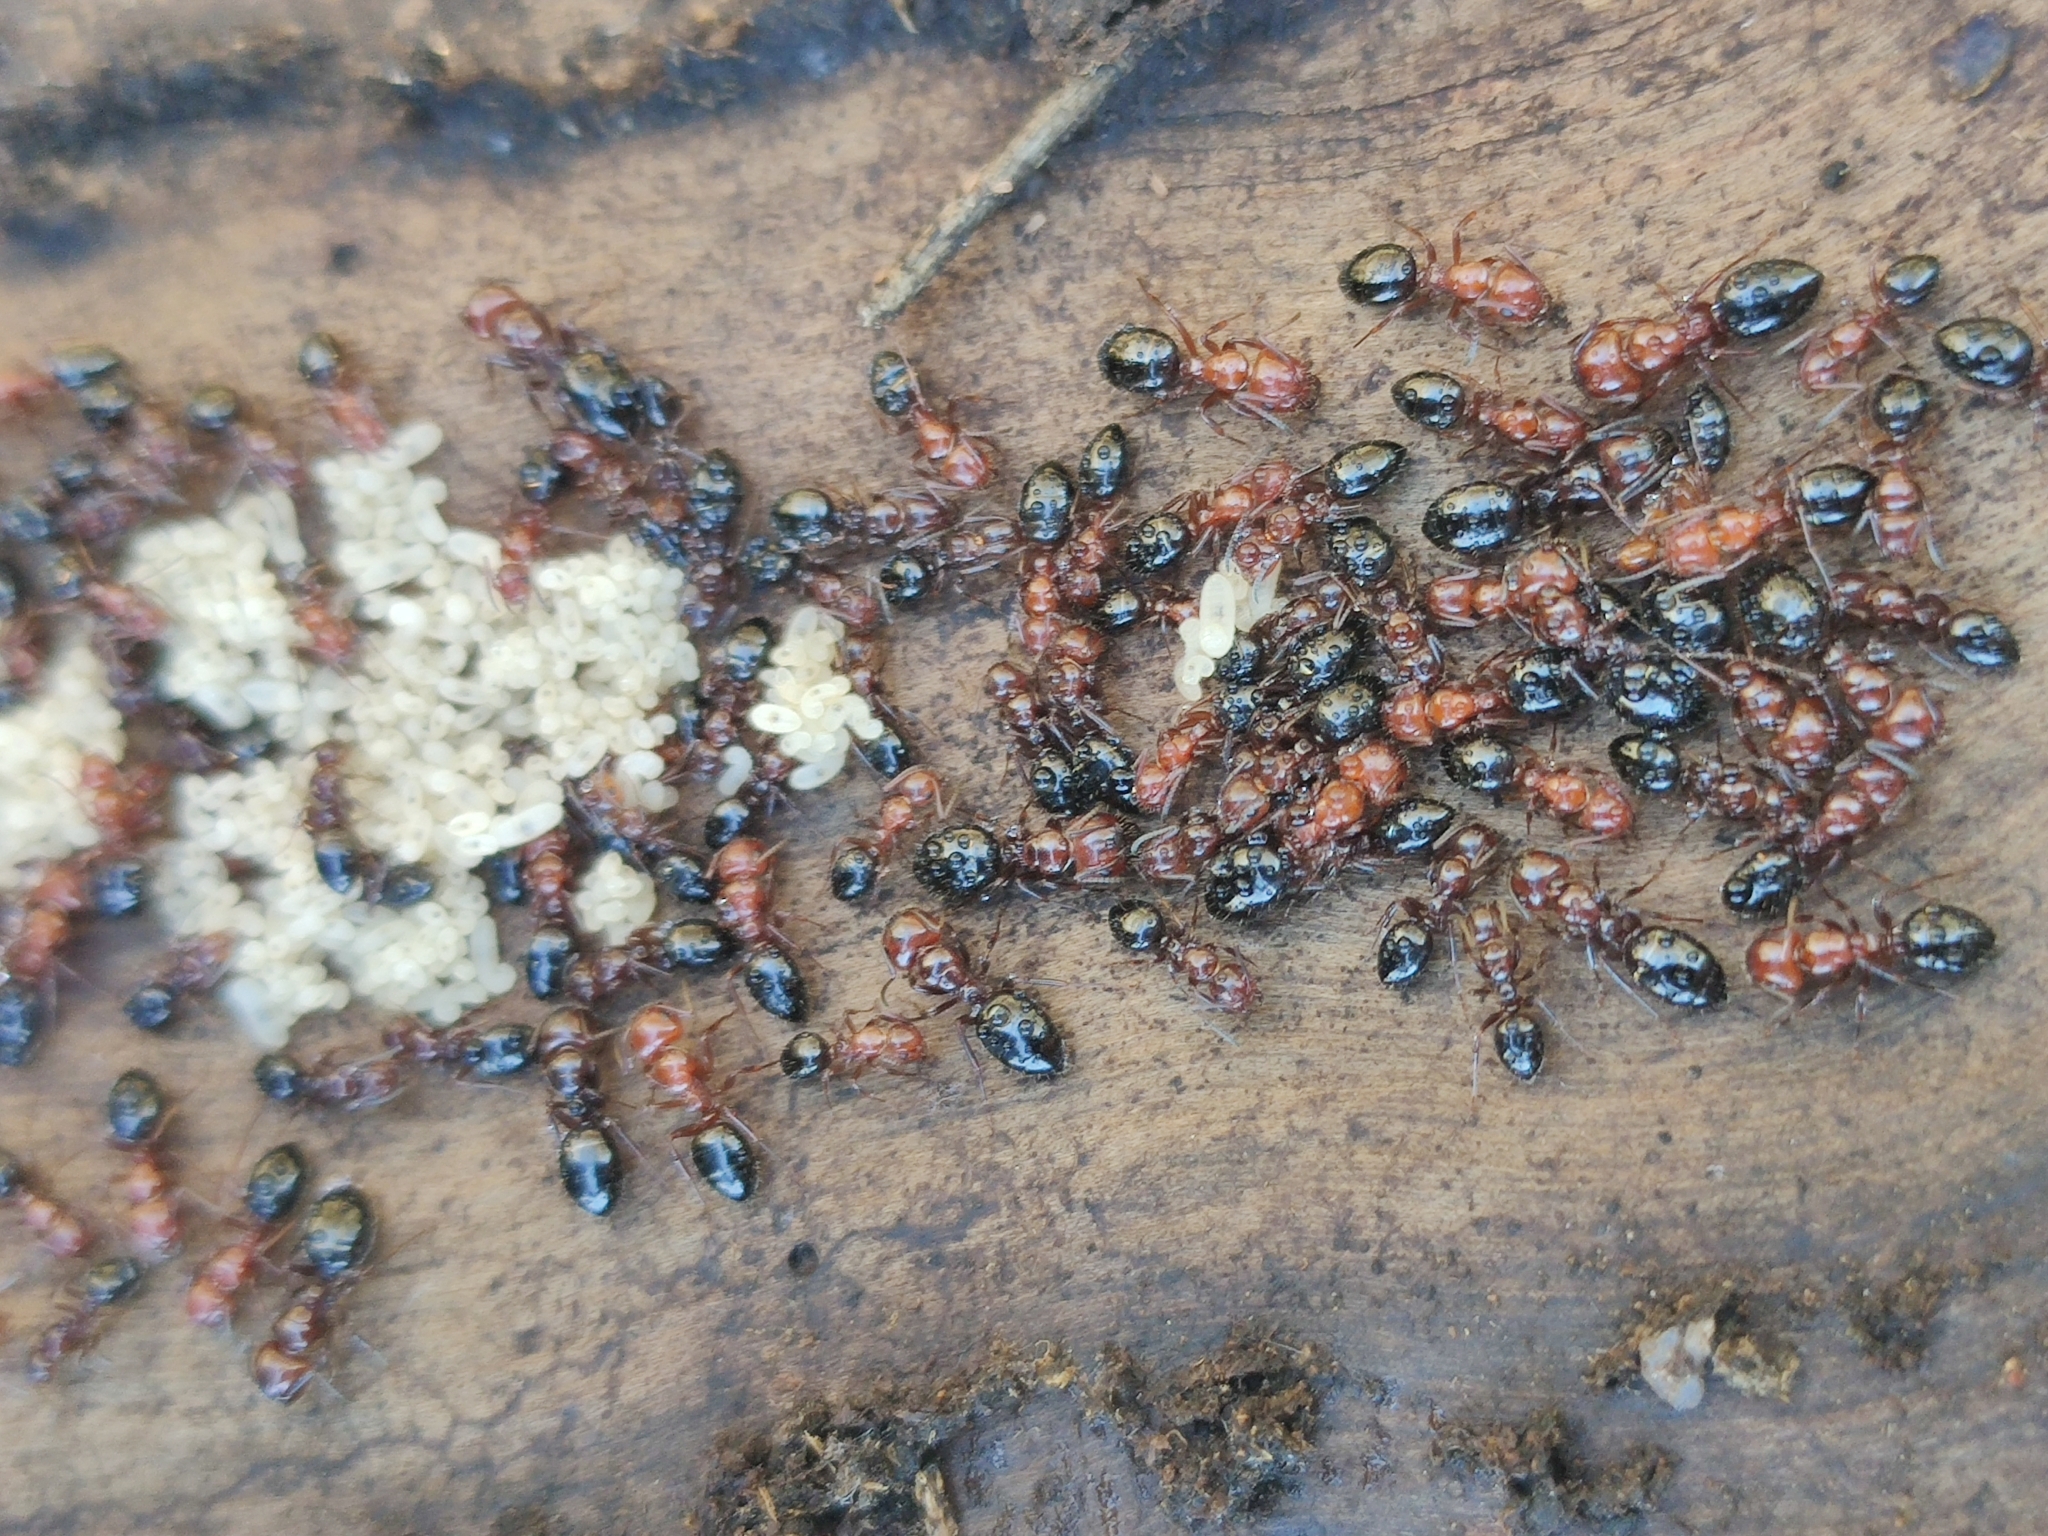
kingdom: Animalia
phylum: Arthropoda
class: Insecta
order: Hymenoptera
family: Formicidae
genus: Camponotus
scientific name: Camponotus lateralis
